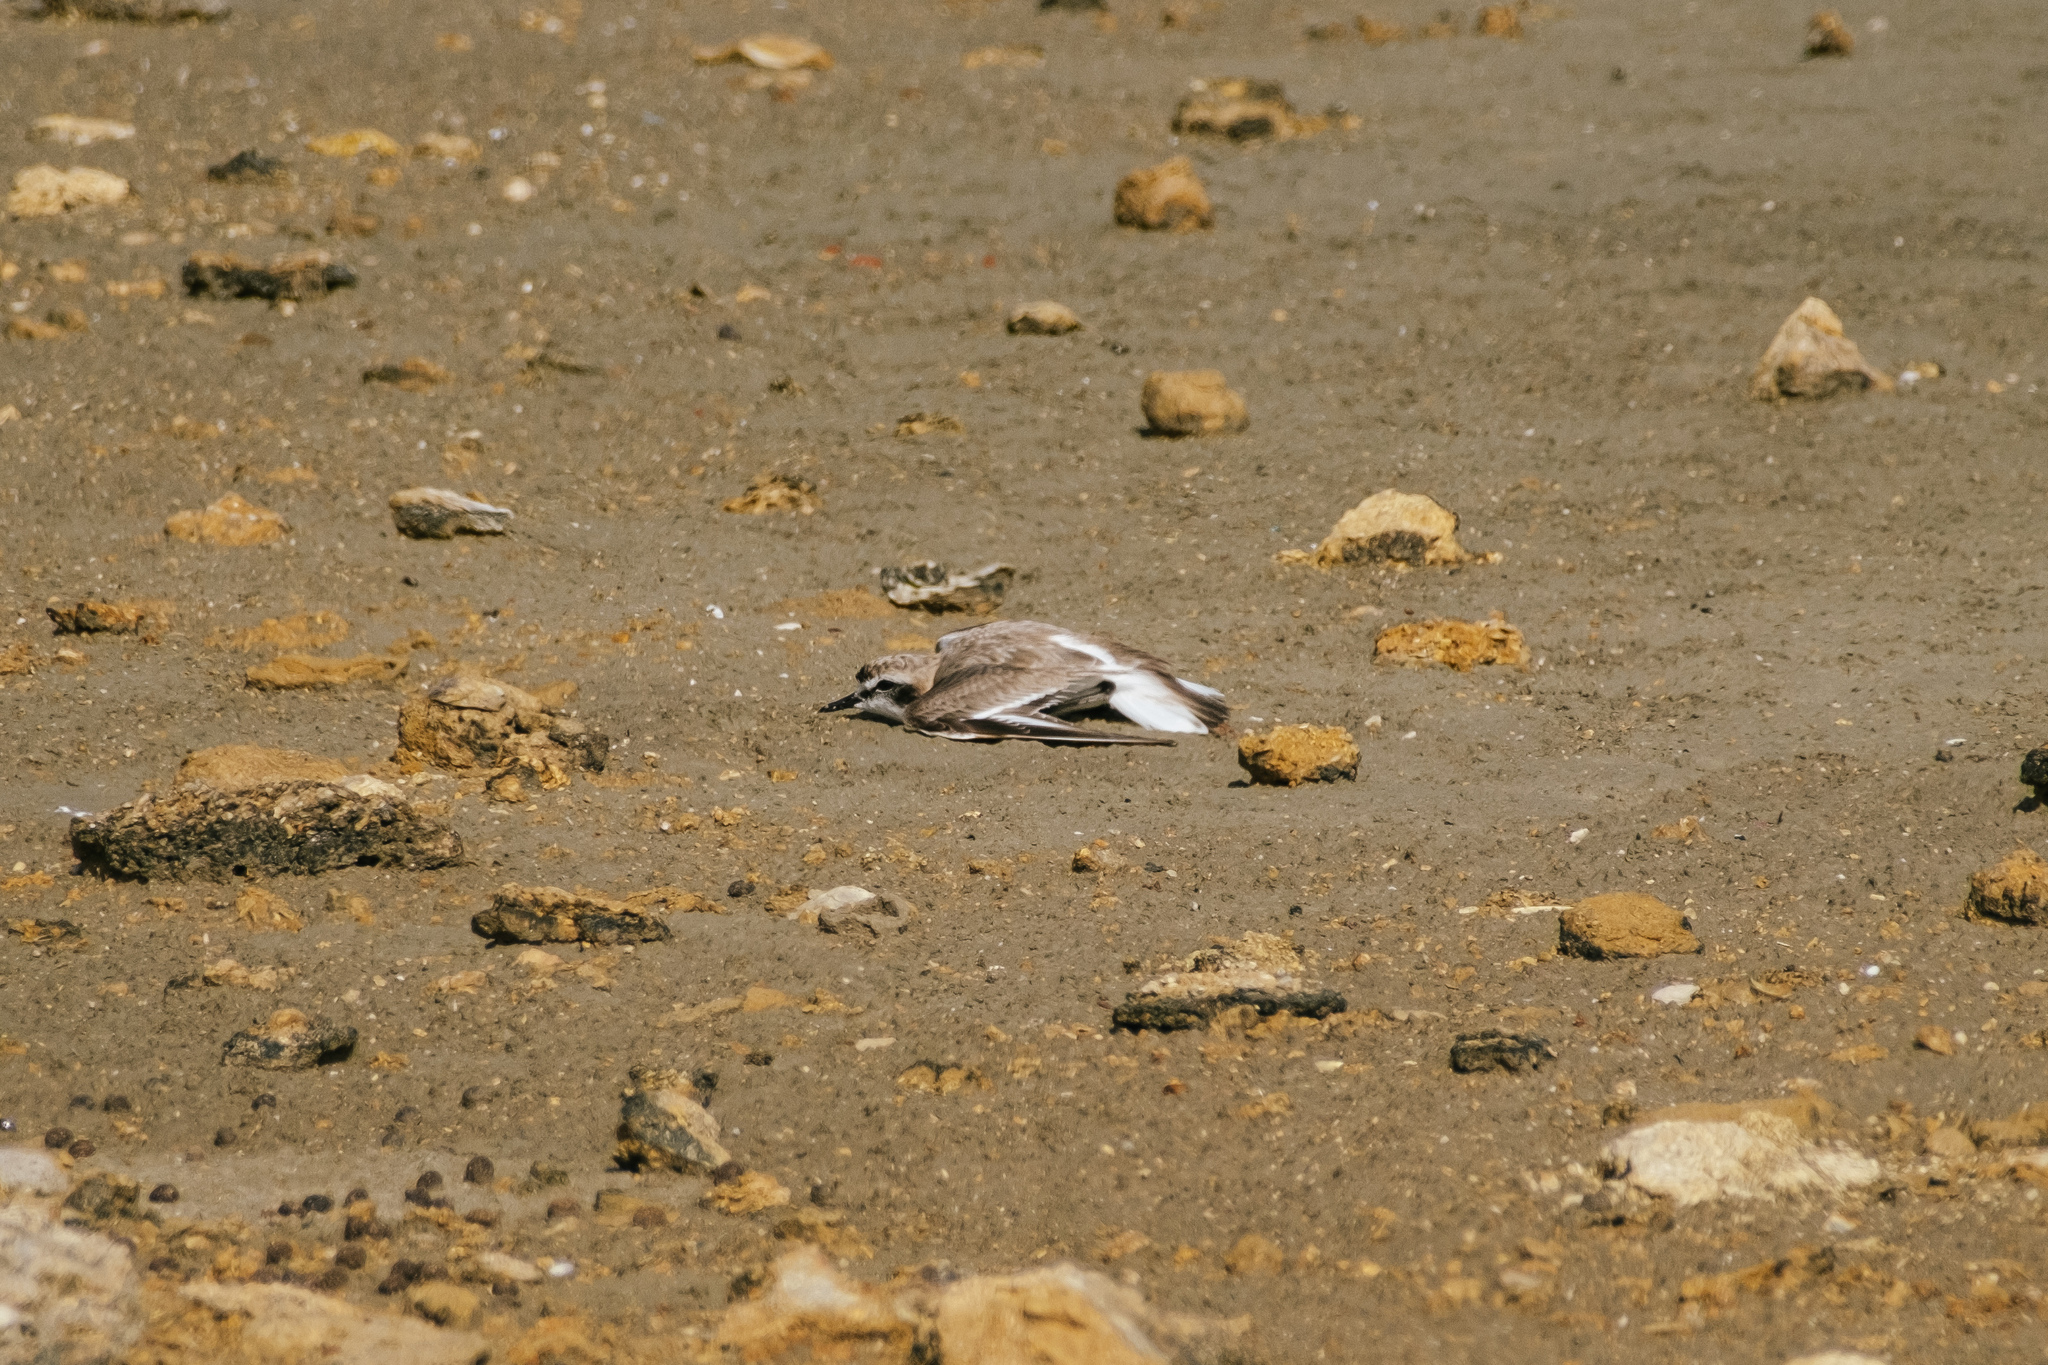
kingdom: Animalia
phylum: Chordata
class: Aves
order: Charadriiformes
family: Charadriidae
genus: Charadrius
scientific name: Charadrius alexandrinus
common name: Kentish plover
